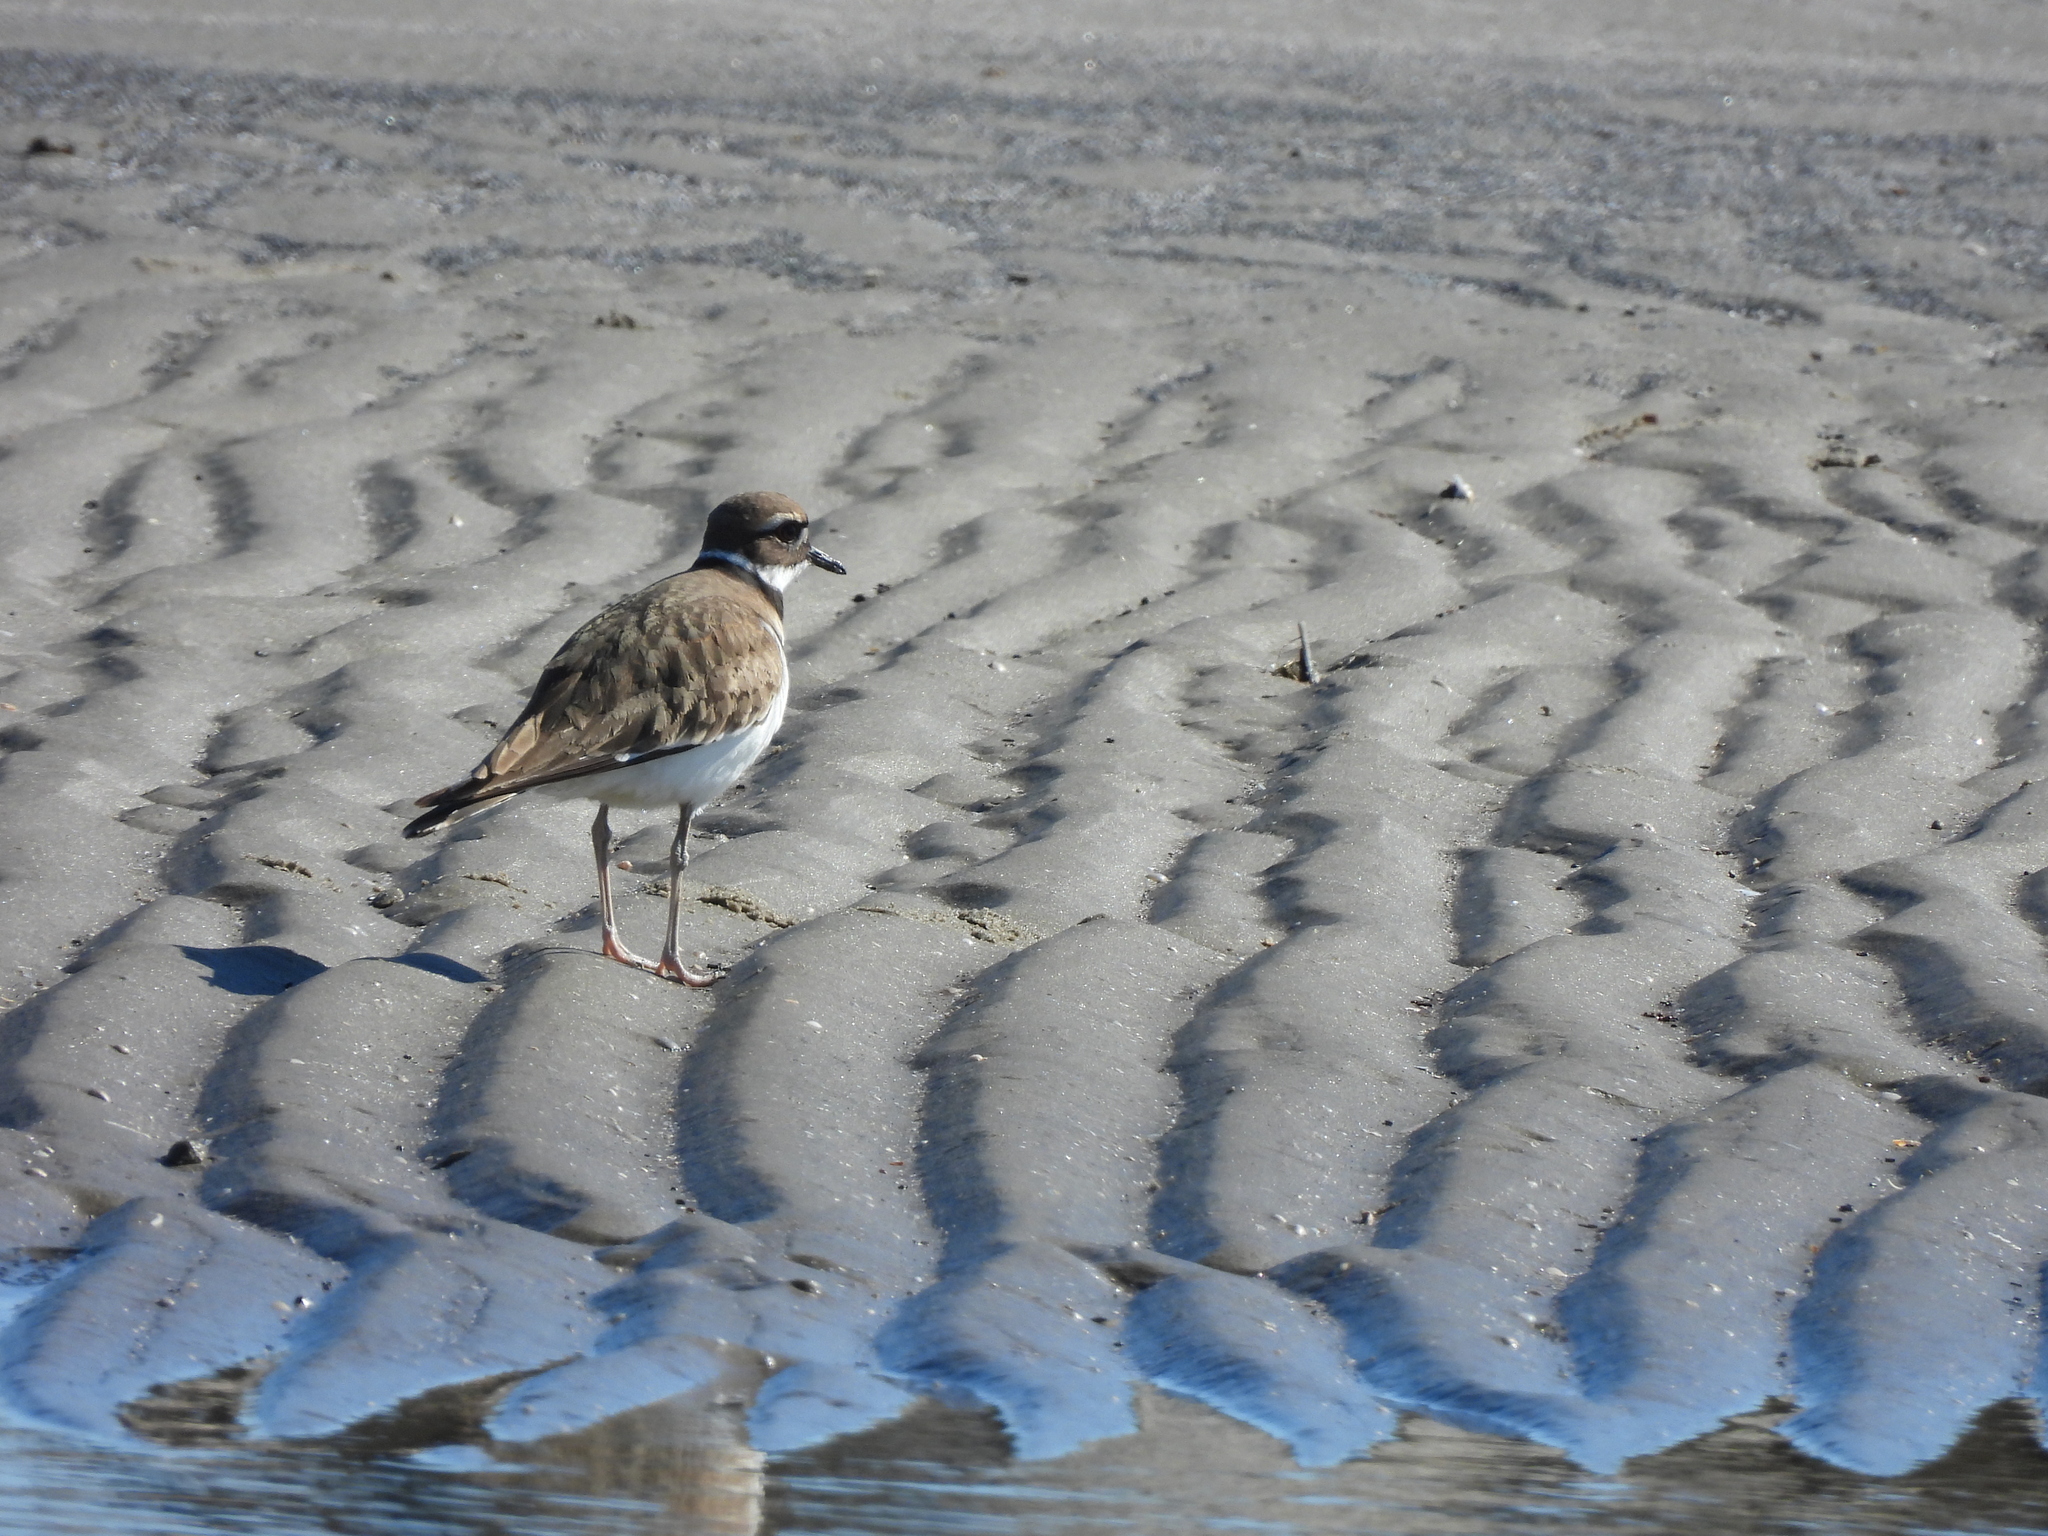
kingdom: Animalia
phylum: Chordata
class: Aves
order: Charadriiformes
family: Charadriidae
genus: Charadrius
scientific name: Charadrius vociferus
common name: Killdeer
